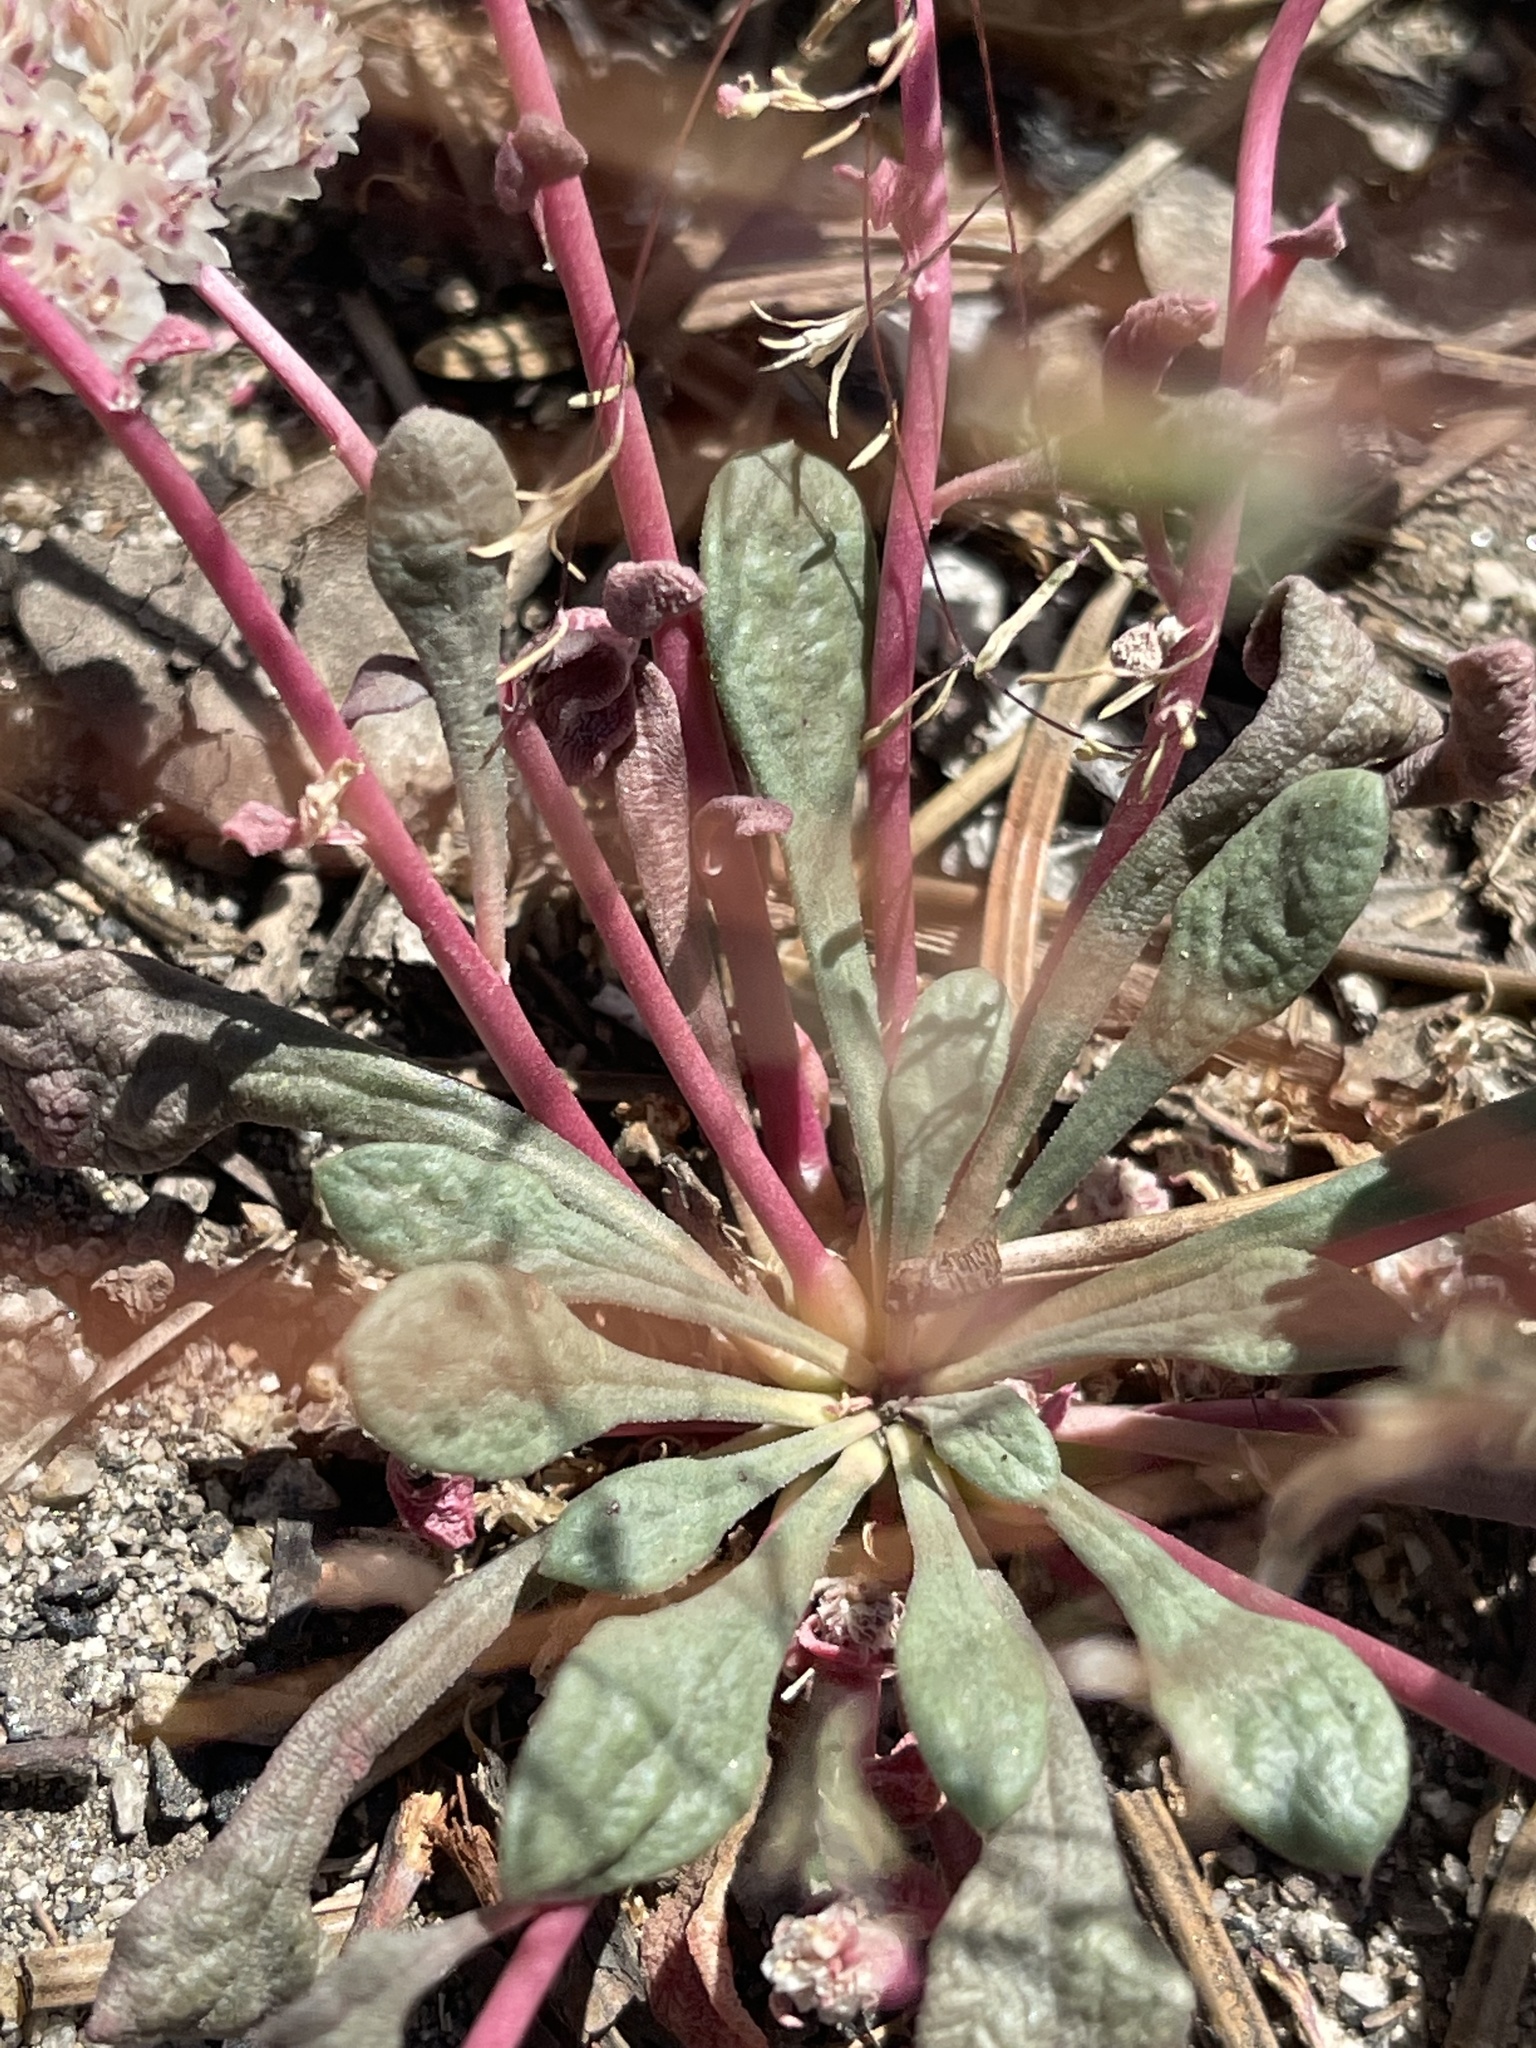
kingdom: Plantae
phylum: Tracheophyta
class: Magnoliopsida
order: Caryophyllales
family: Montiaceae
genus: Calyptridium
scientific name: Calyptridium monospermum
